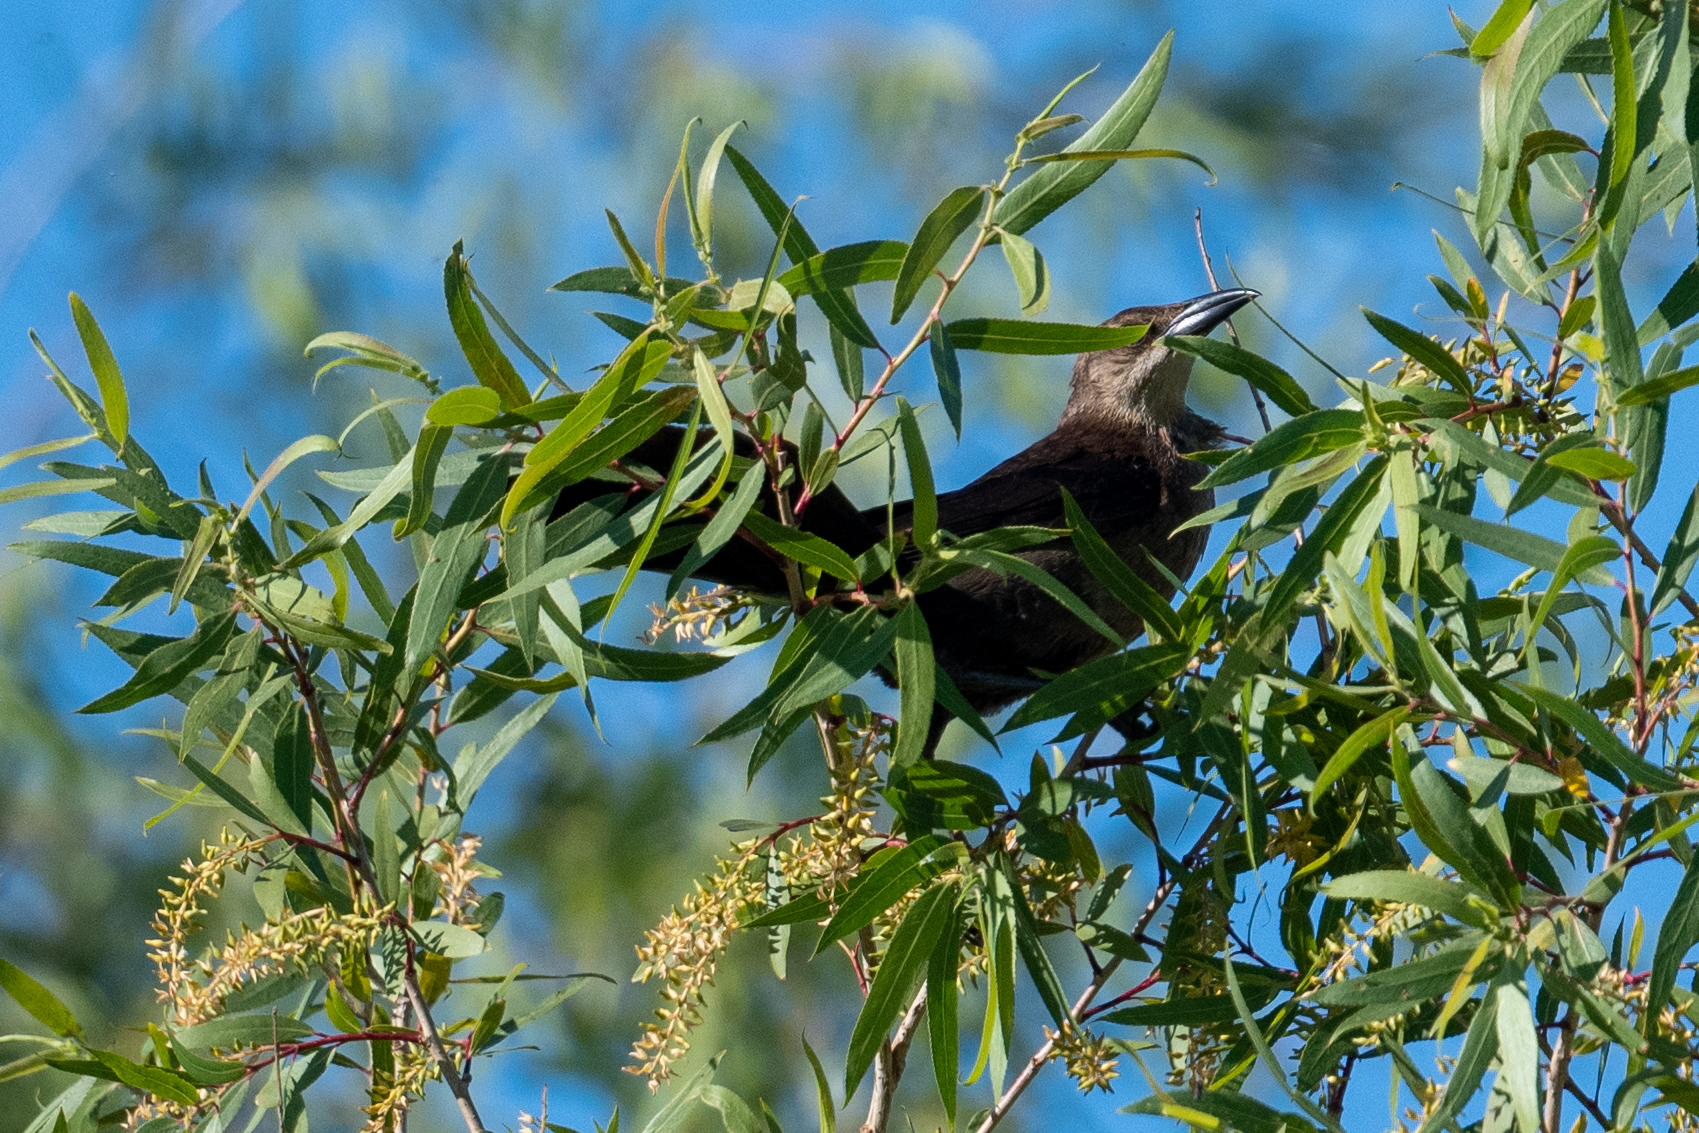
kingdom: Animalia
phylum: Chordata
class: Aves
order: Passeriformes
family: Icteridae
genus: Quiscalus
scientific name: Quiscalus mexicanus
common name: Great-tailed grackle
